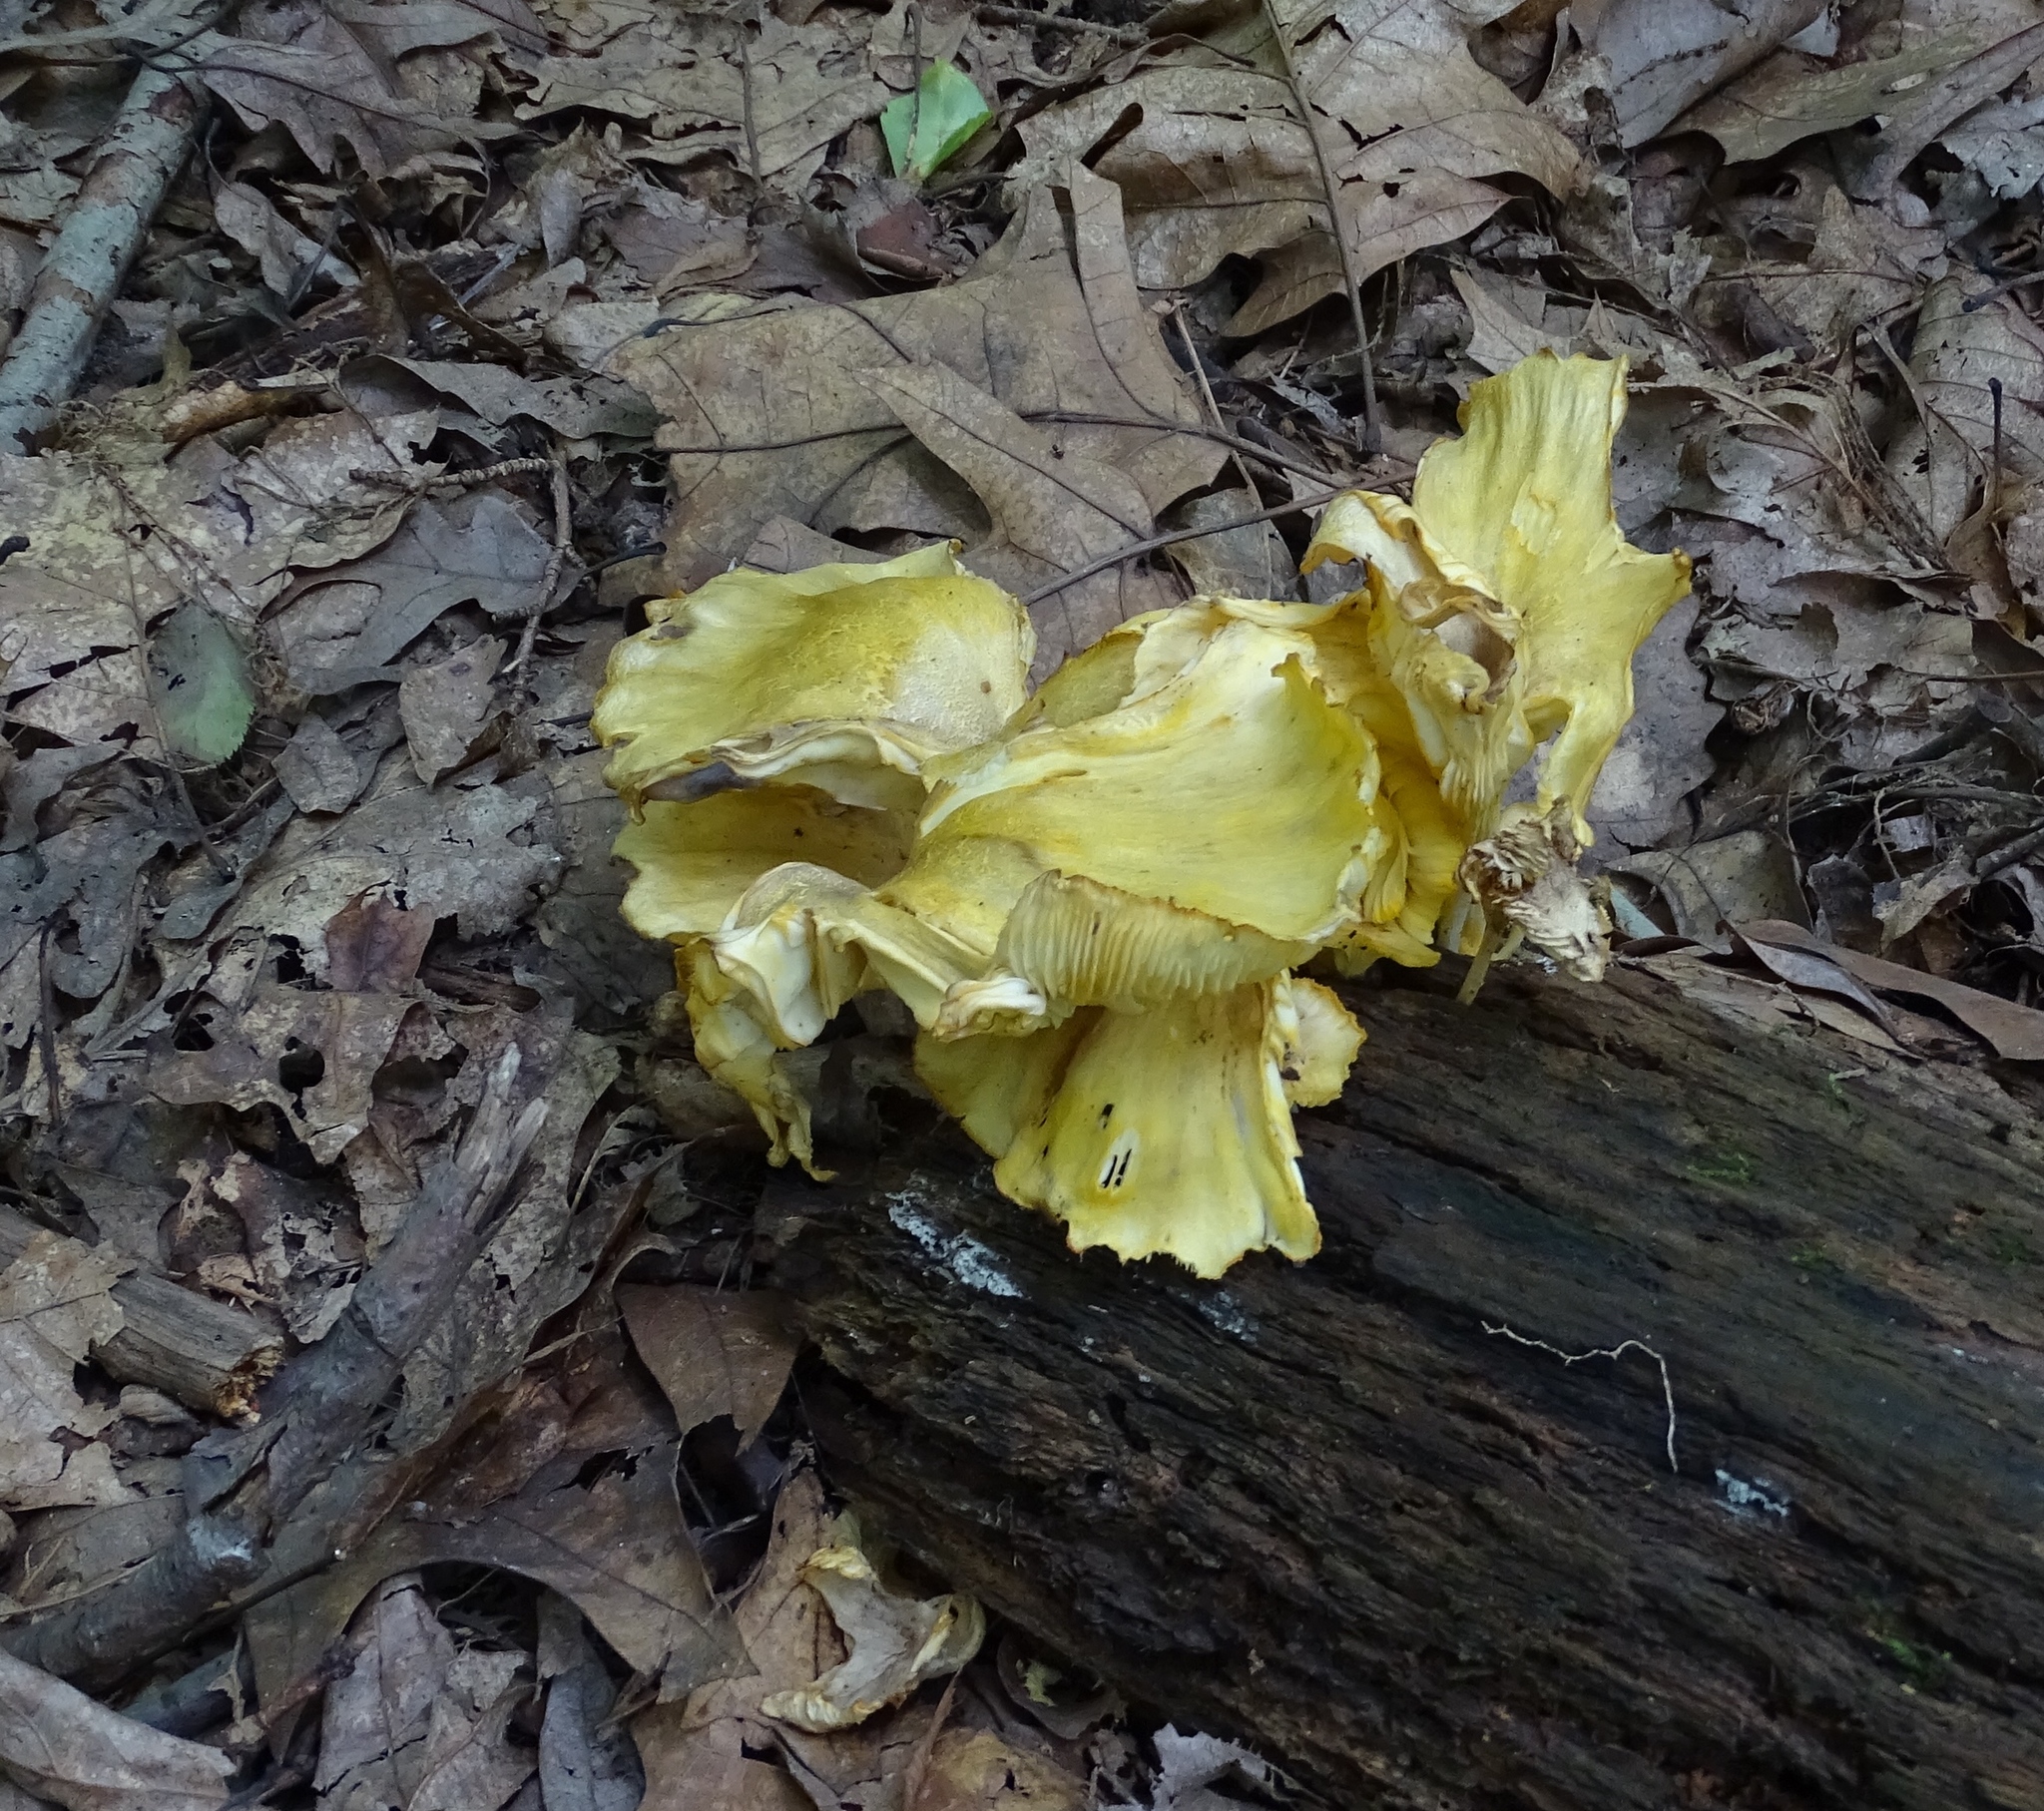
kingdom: Fungi
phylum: Basidiomycota
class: Agaricomycetes
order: Agaricales
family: Marasmiaceae
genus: Gerronema
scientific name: Gerronema strombodes
